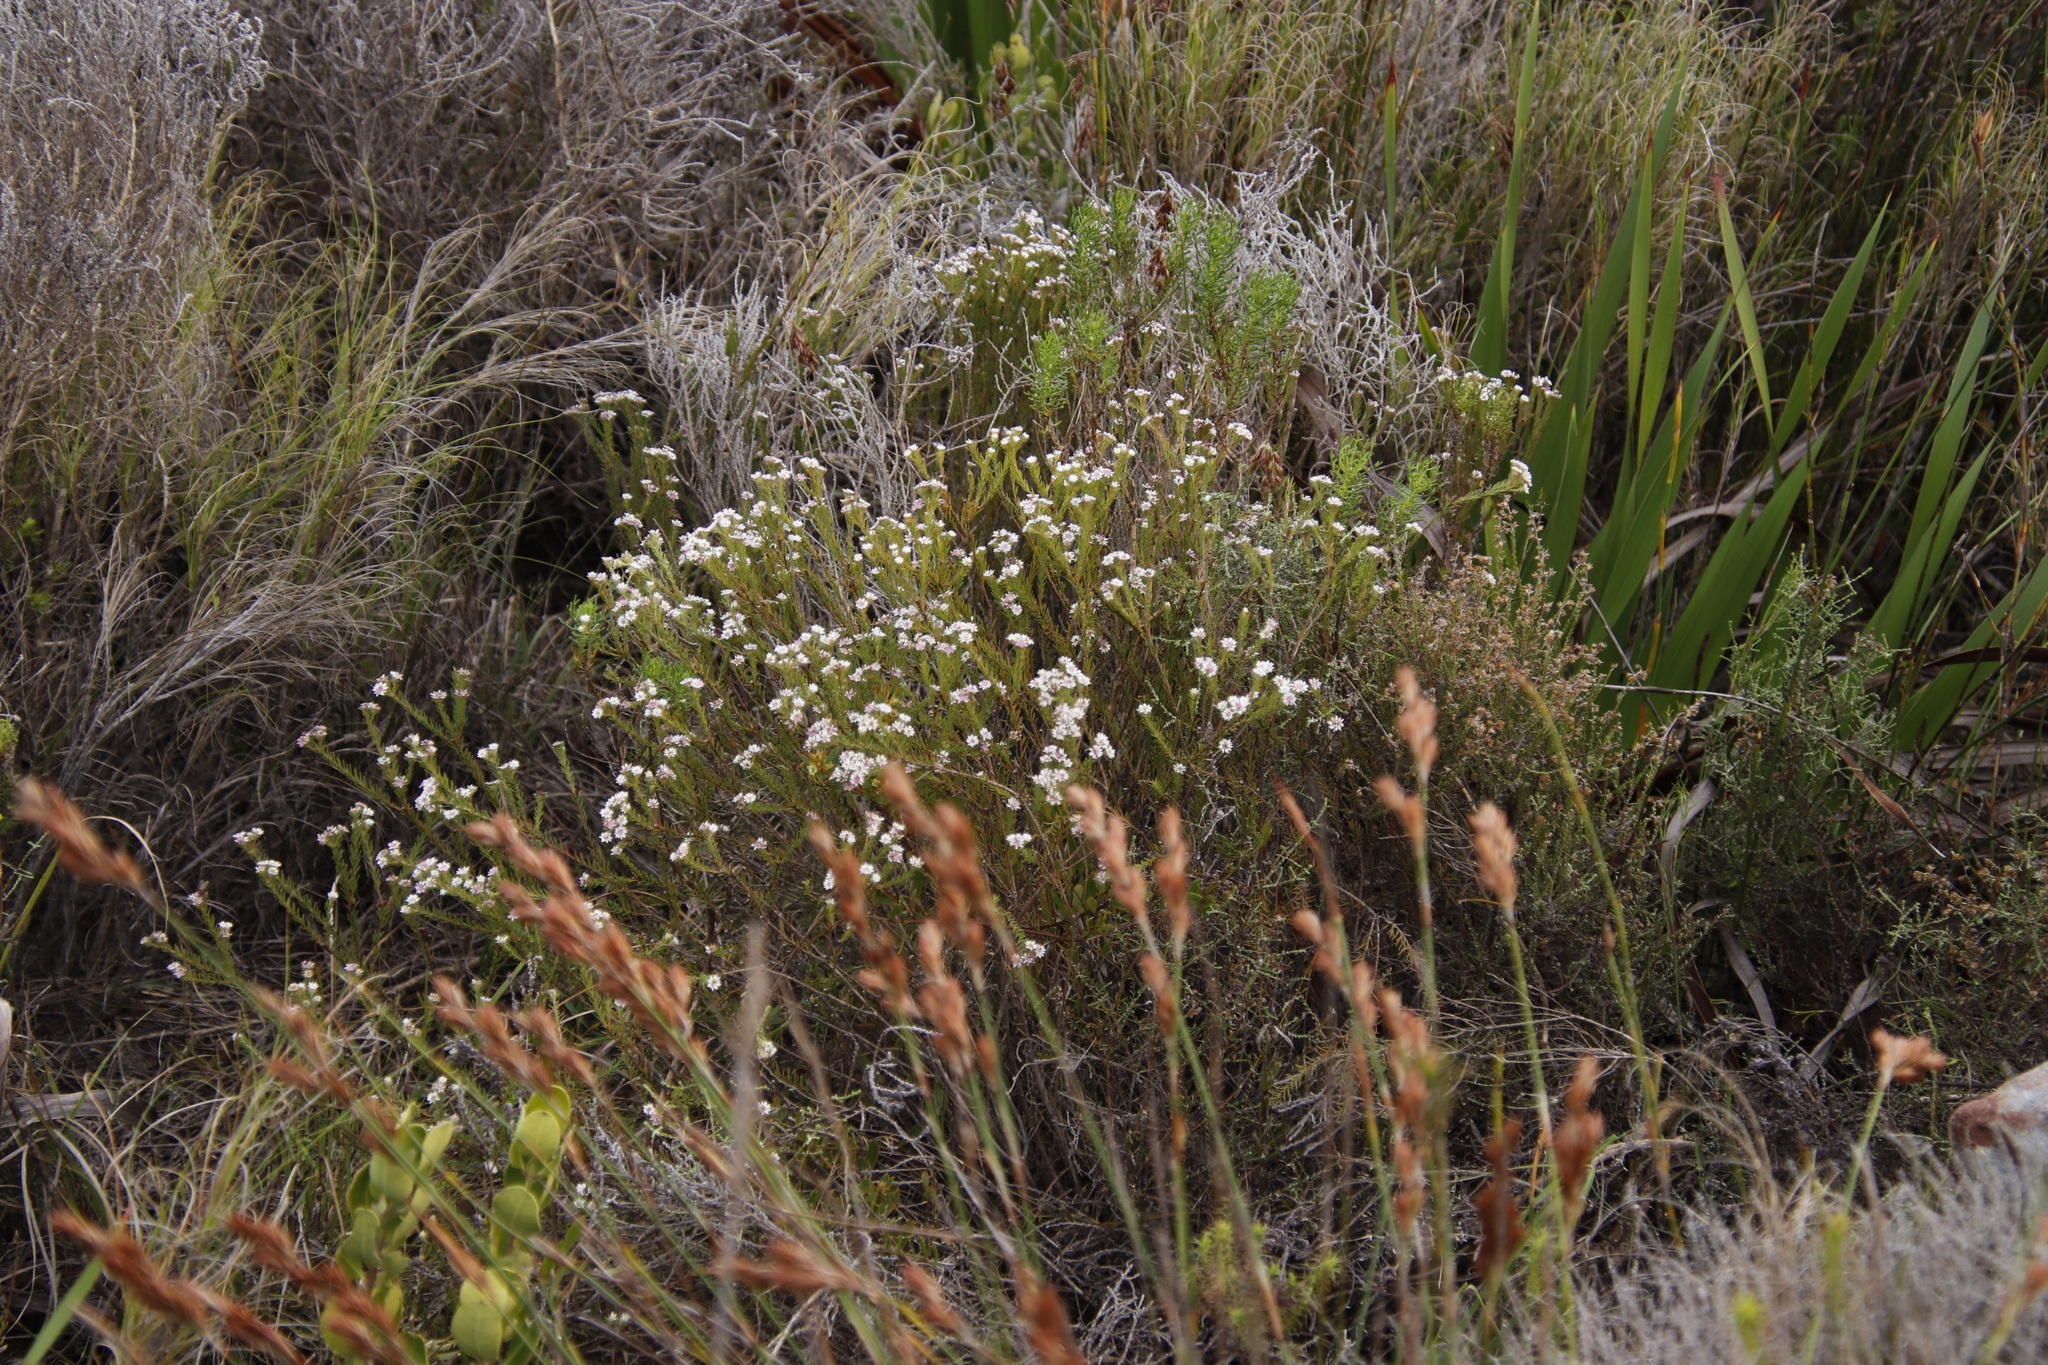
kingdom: Plantae
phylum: Tracheophyta
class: Magnoliopsida
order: Bruniales
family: Bruniaceae
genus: Staavia
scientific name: Staavia radiata
